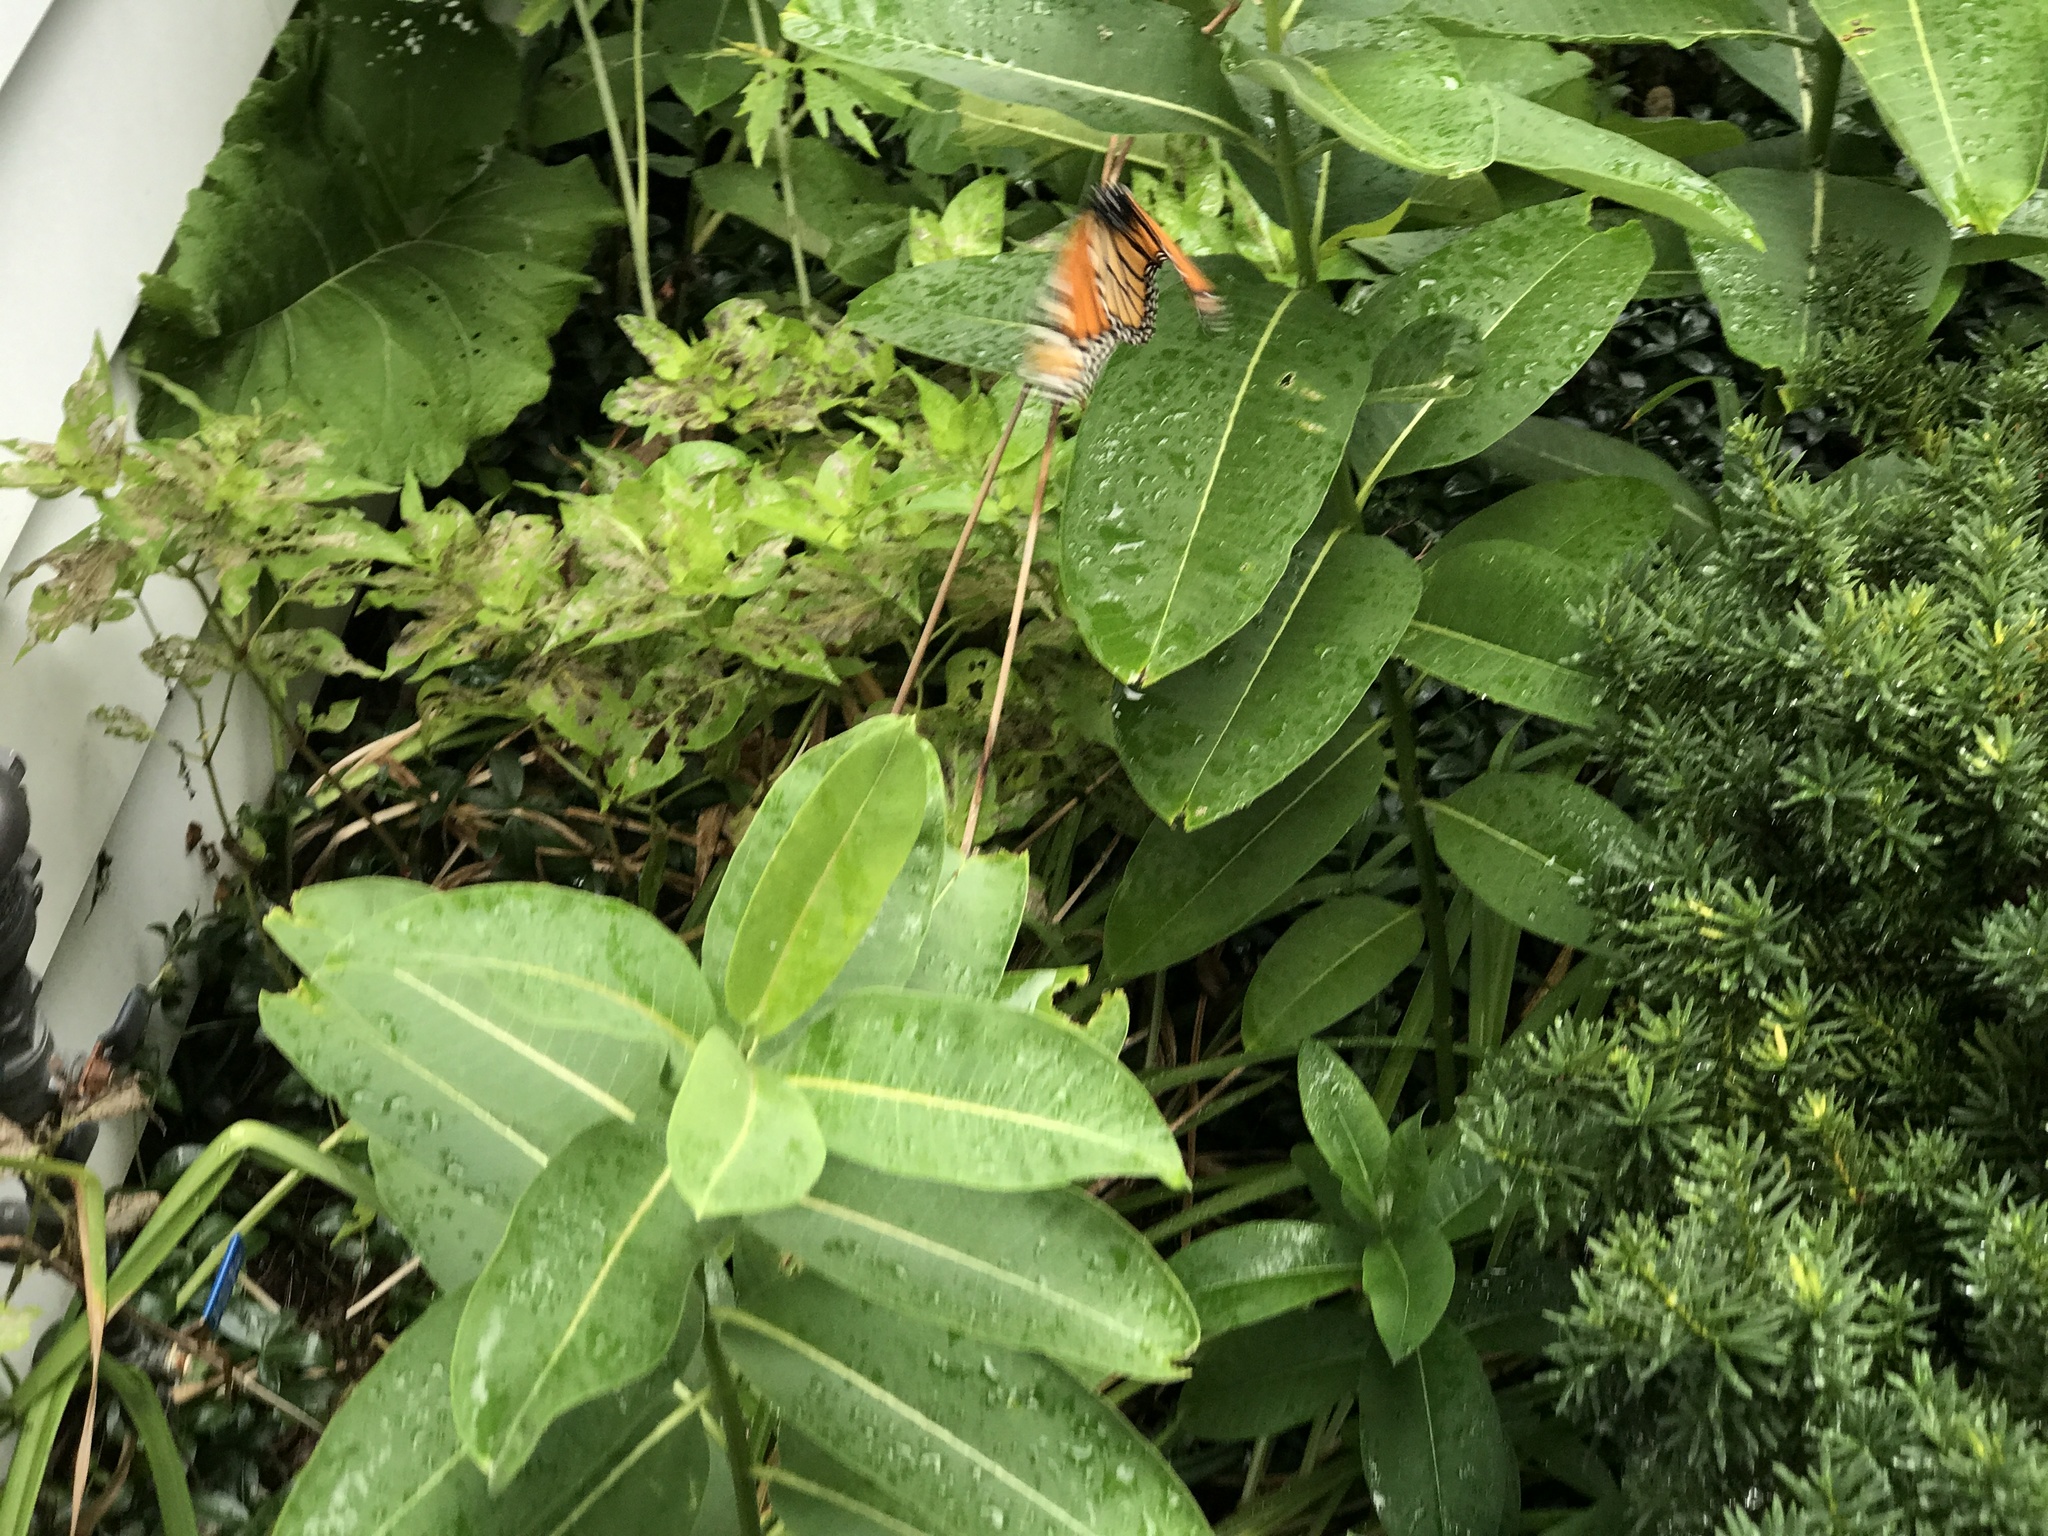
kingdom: Animalia
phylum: Arthropoda
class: Insecta
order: Lepidoptera
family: Nymphalidae
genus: Danaus
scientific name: Danaus plexippus
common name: Monarch
